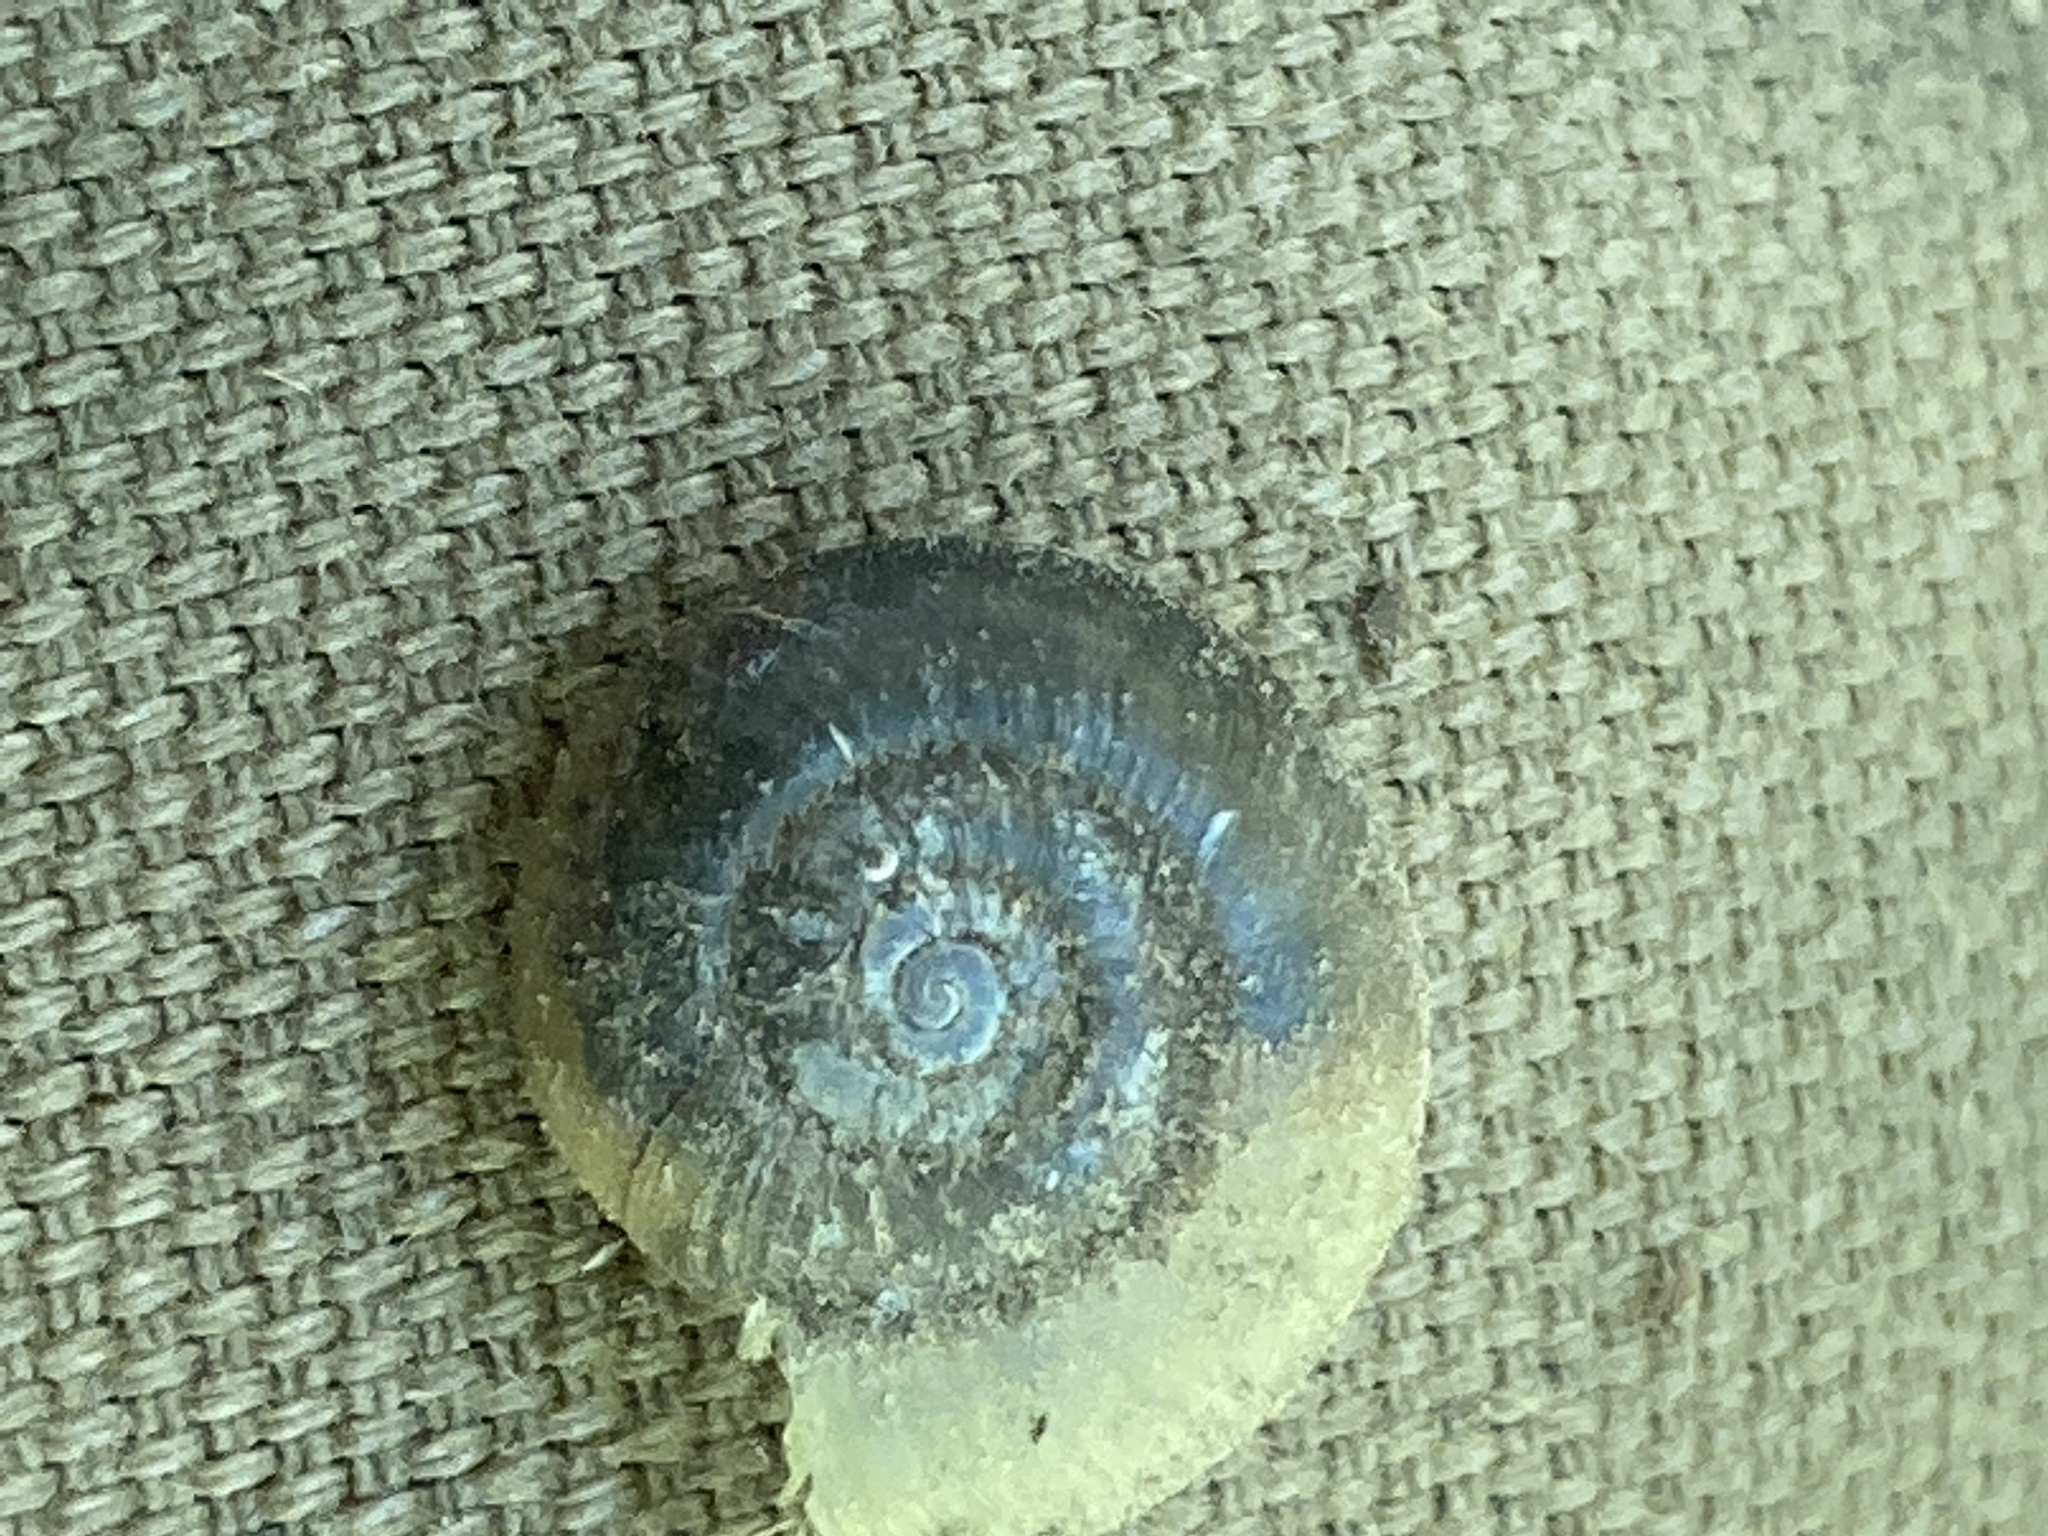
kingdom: Animalia
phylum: Mollusca
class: Gastropoda
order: Stylommatophora
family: Haplotrematidae
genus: Haplotrema
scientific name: Haplotrema concavum
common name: Gray-foot lancetooth
